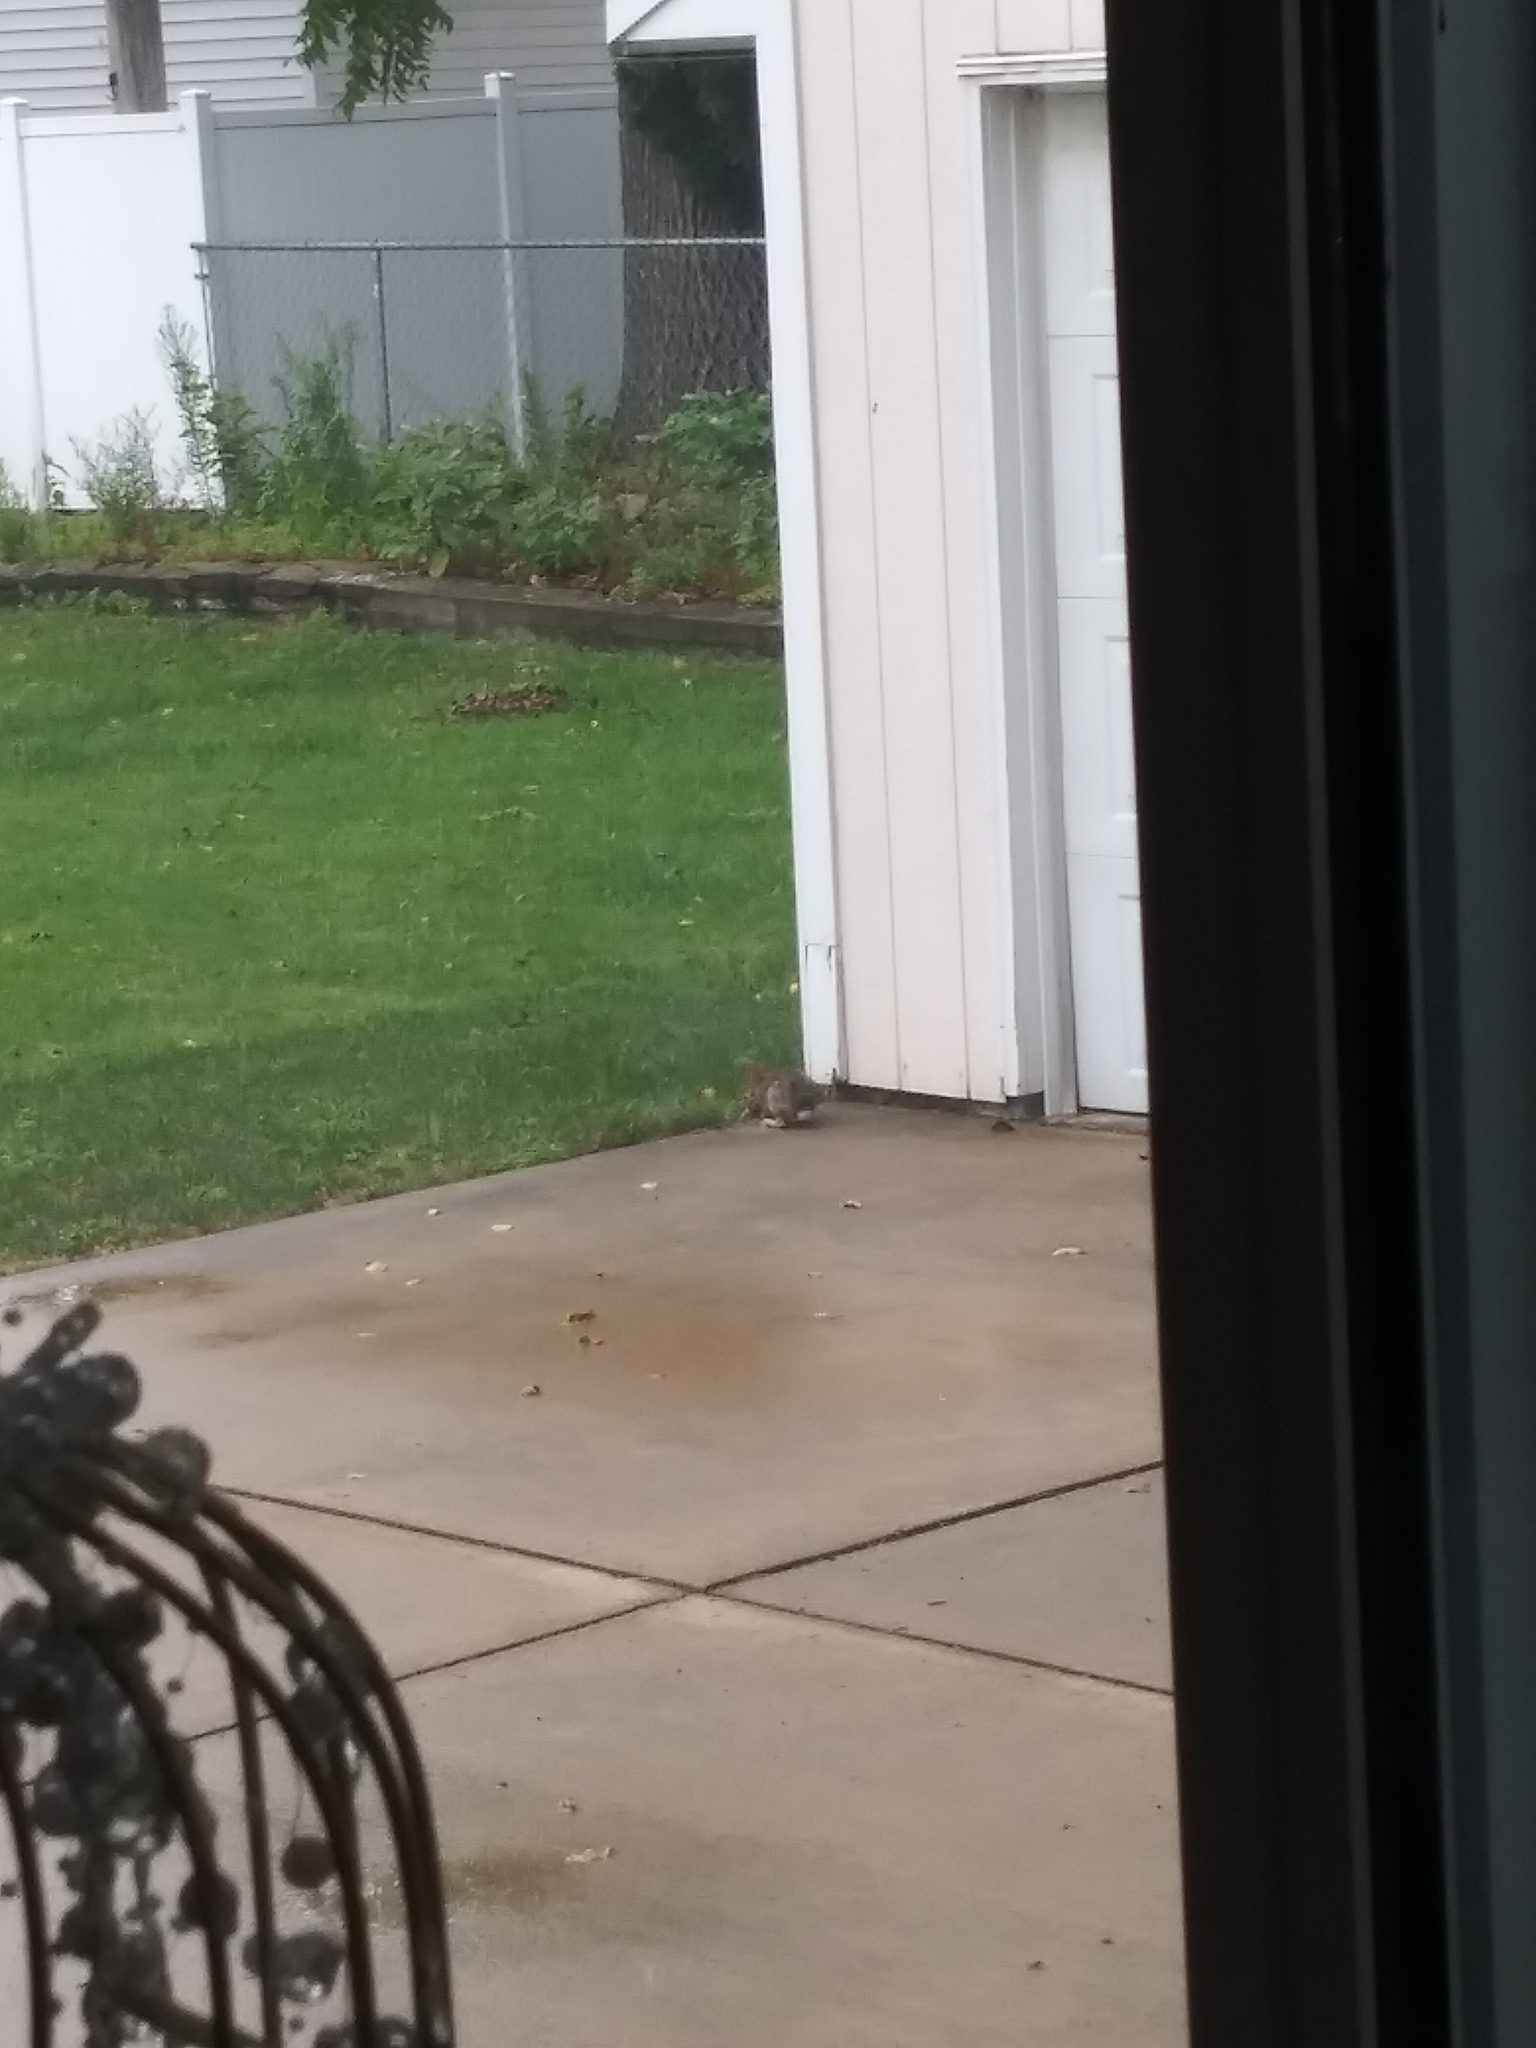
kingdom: Animalia
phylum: Chordata
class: Mammalia
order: Lagomorpha
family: Leporidae
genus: Sylvilagus
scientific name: Sylvilagus floridanus
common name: Eastern cottontail
